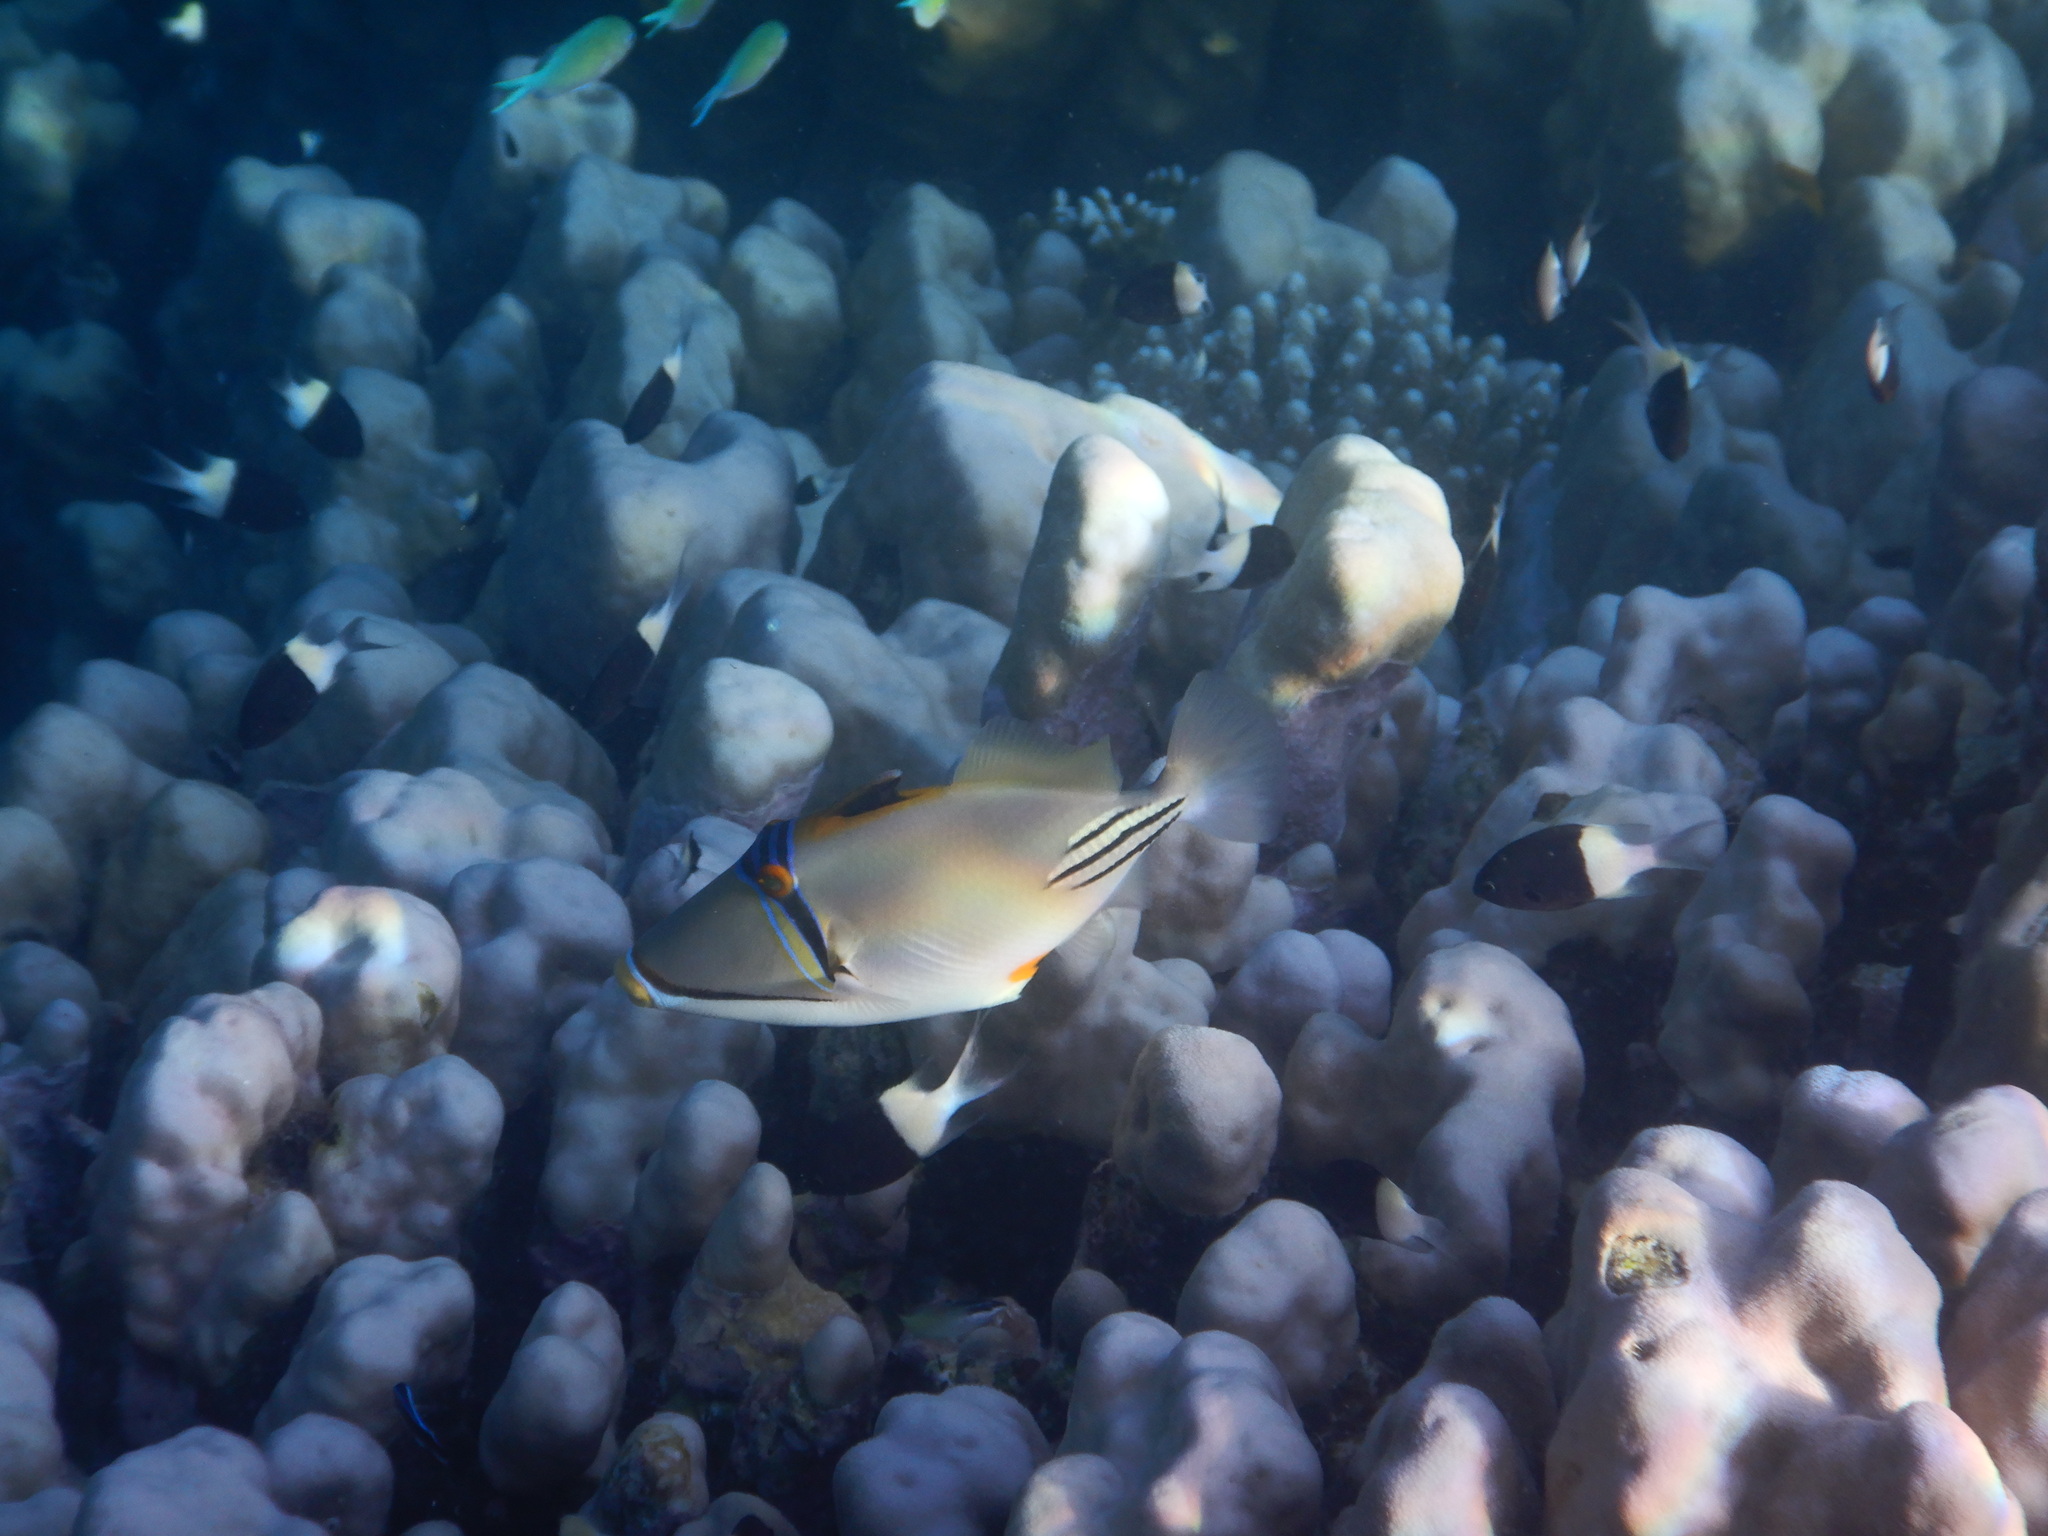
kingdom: Animalia
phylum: Chordata
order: Tetraodontiformes
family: Balistidae
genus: Rhinecanthus
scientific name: Rhinecanthus assasi
